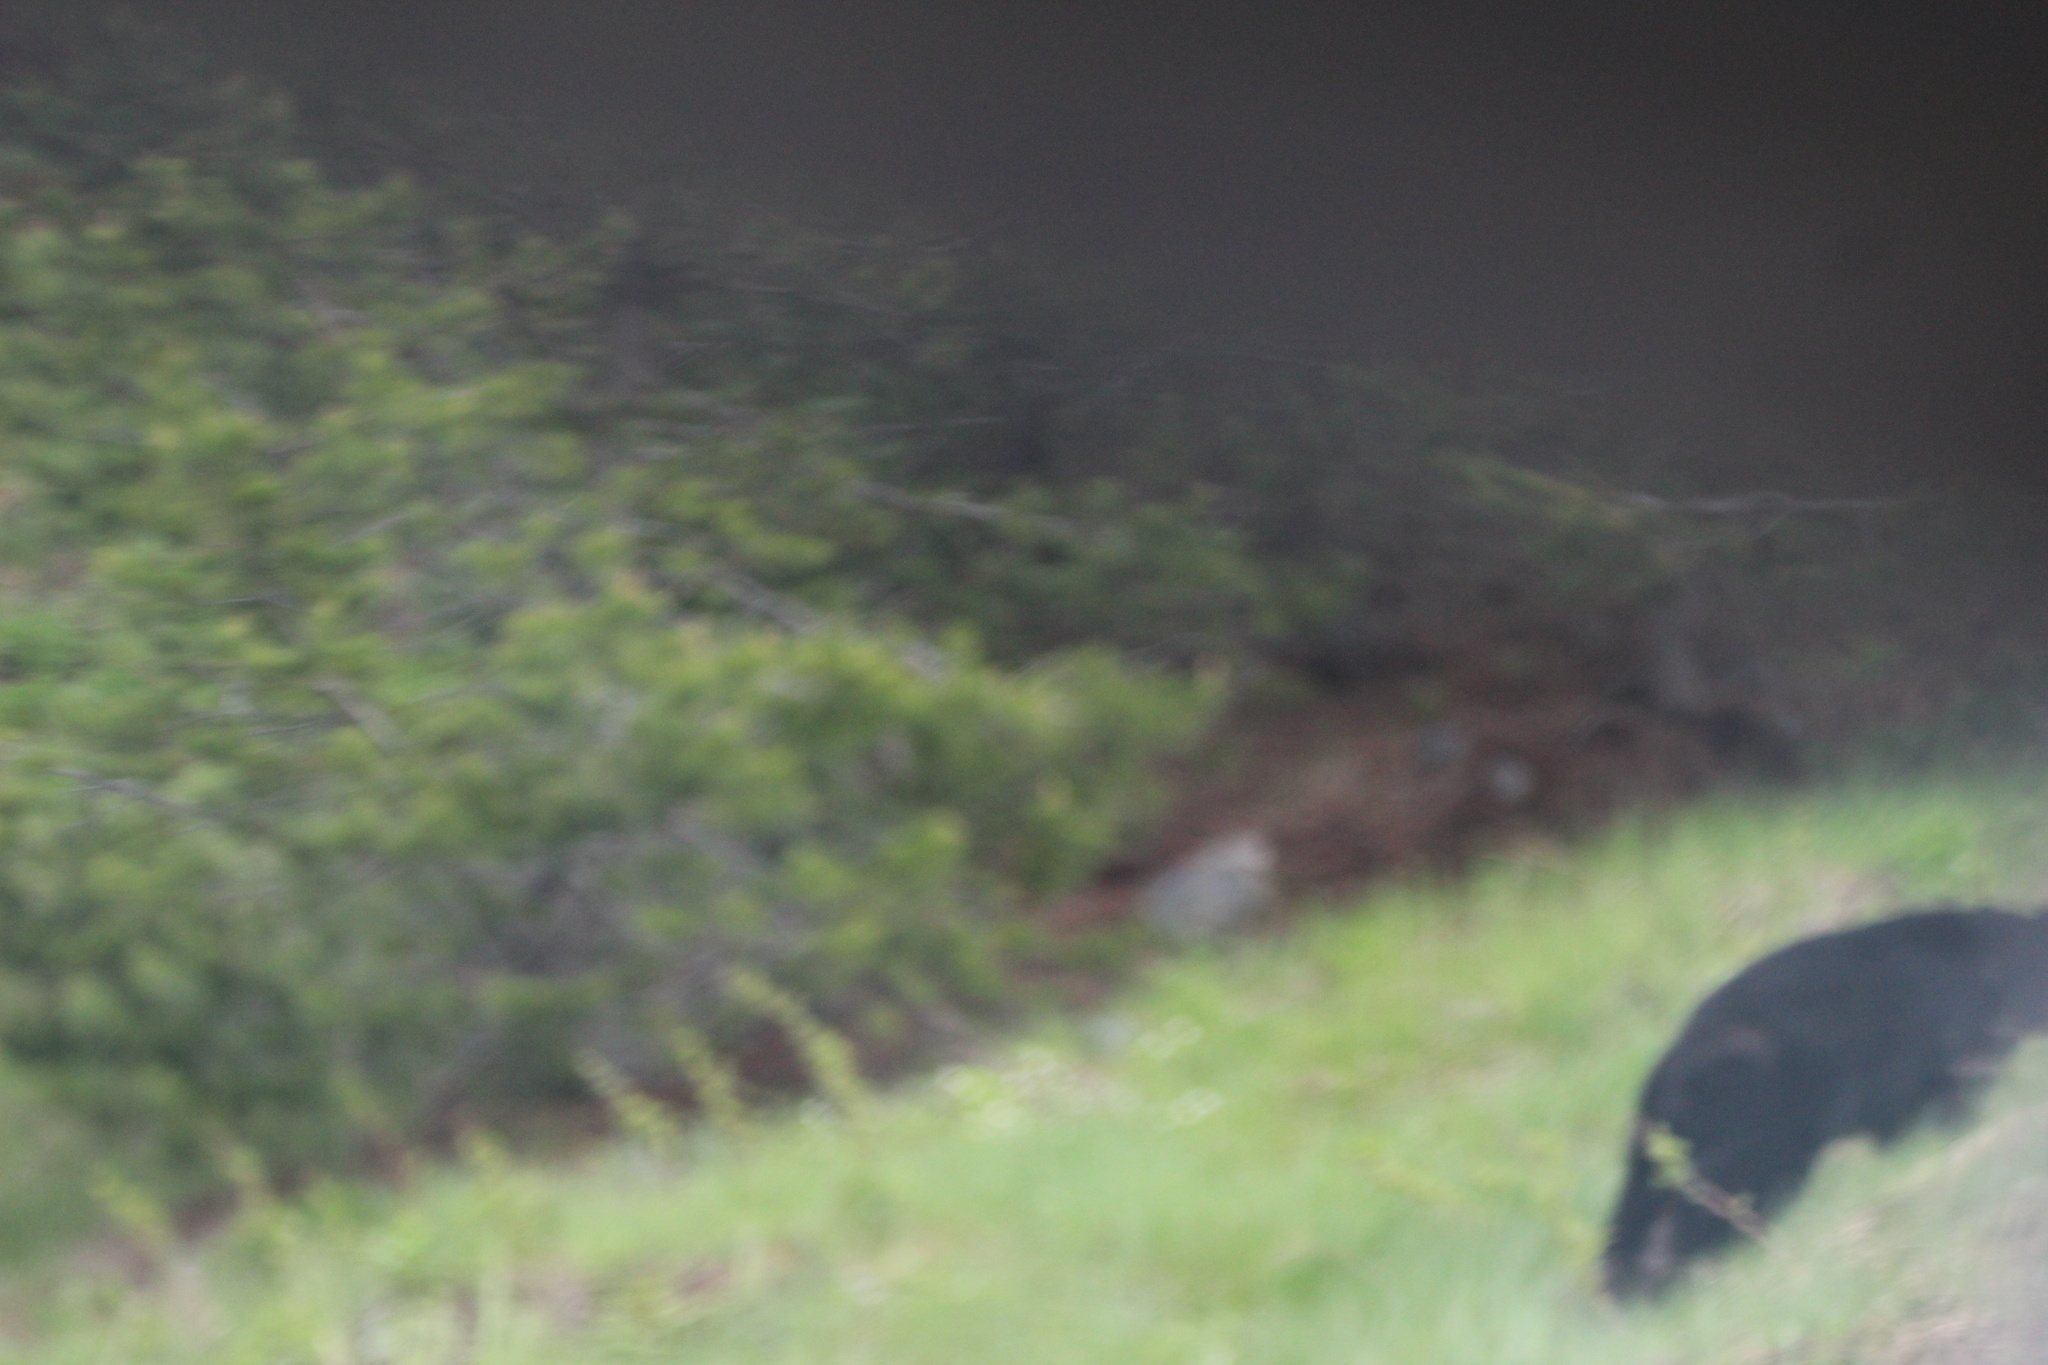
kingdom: Animalia
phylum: Chordata
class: Mammalia
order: Carnivora
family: Ursidae
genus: Ursus
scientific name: Ursus americanus
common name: American black bear
